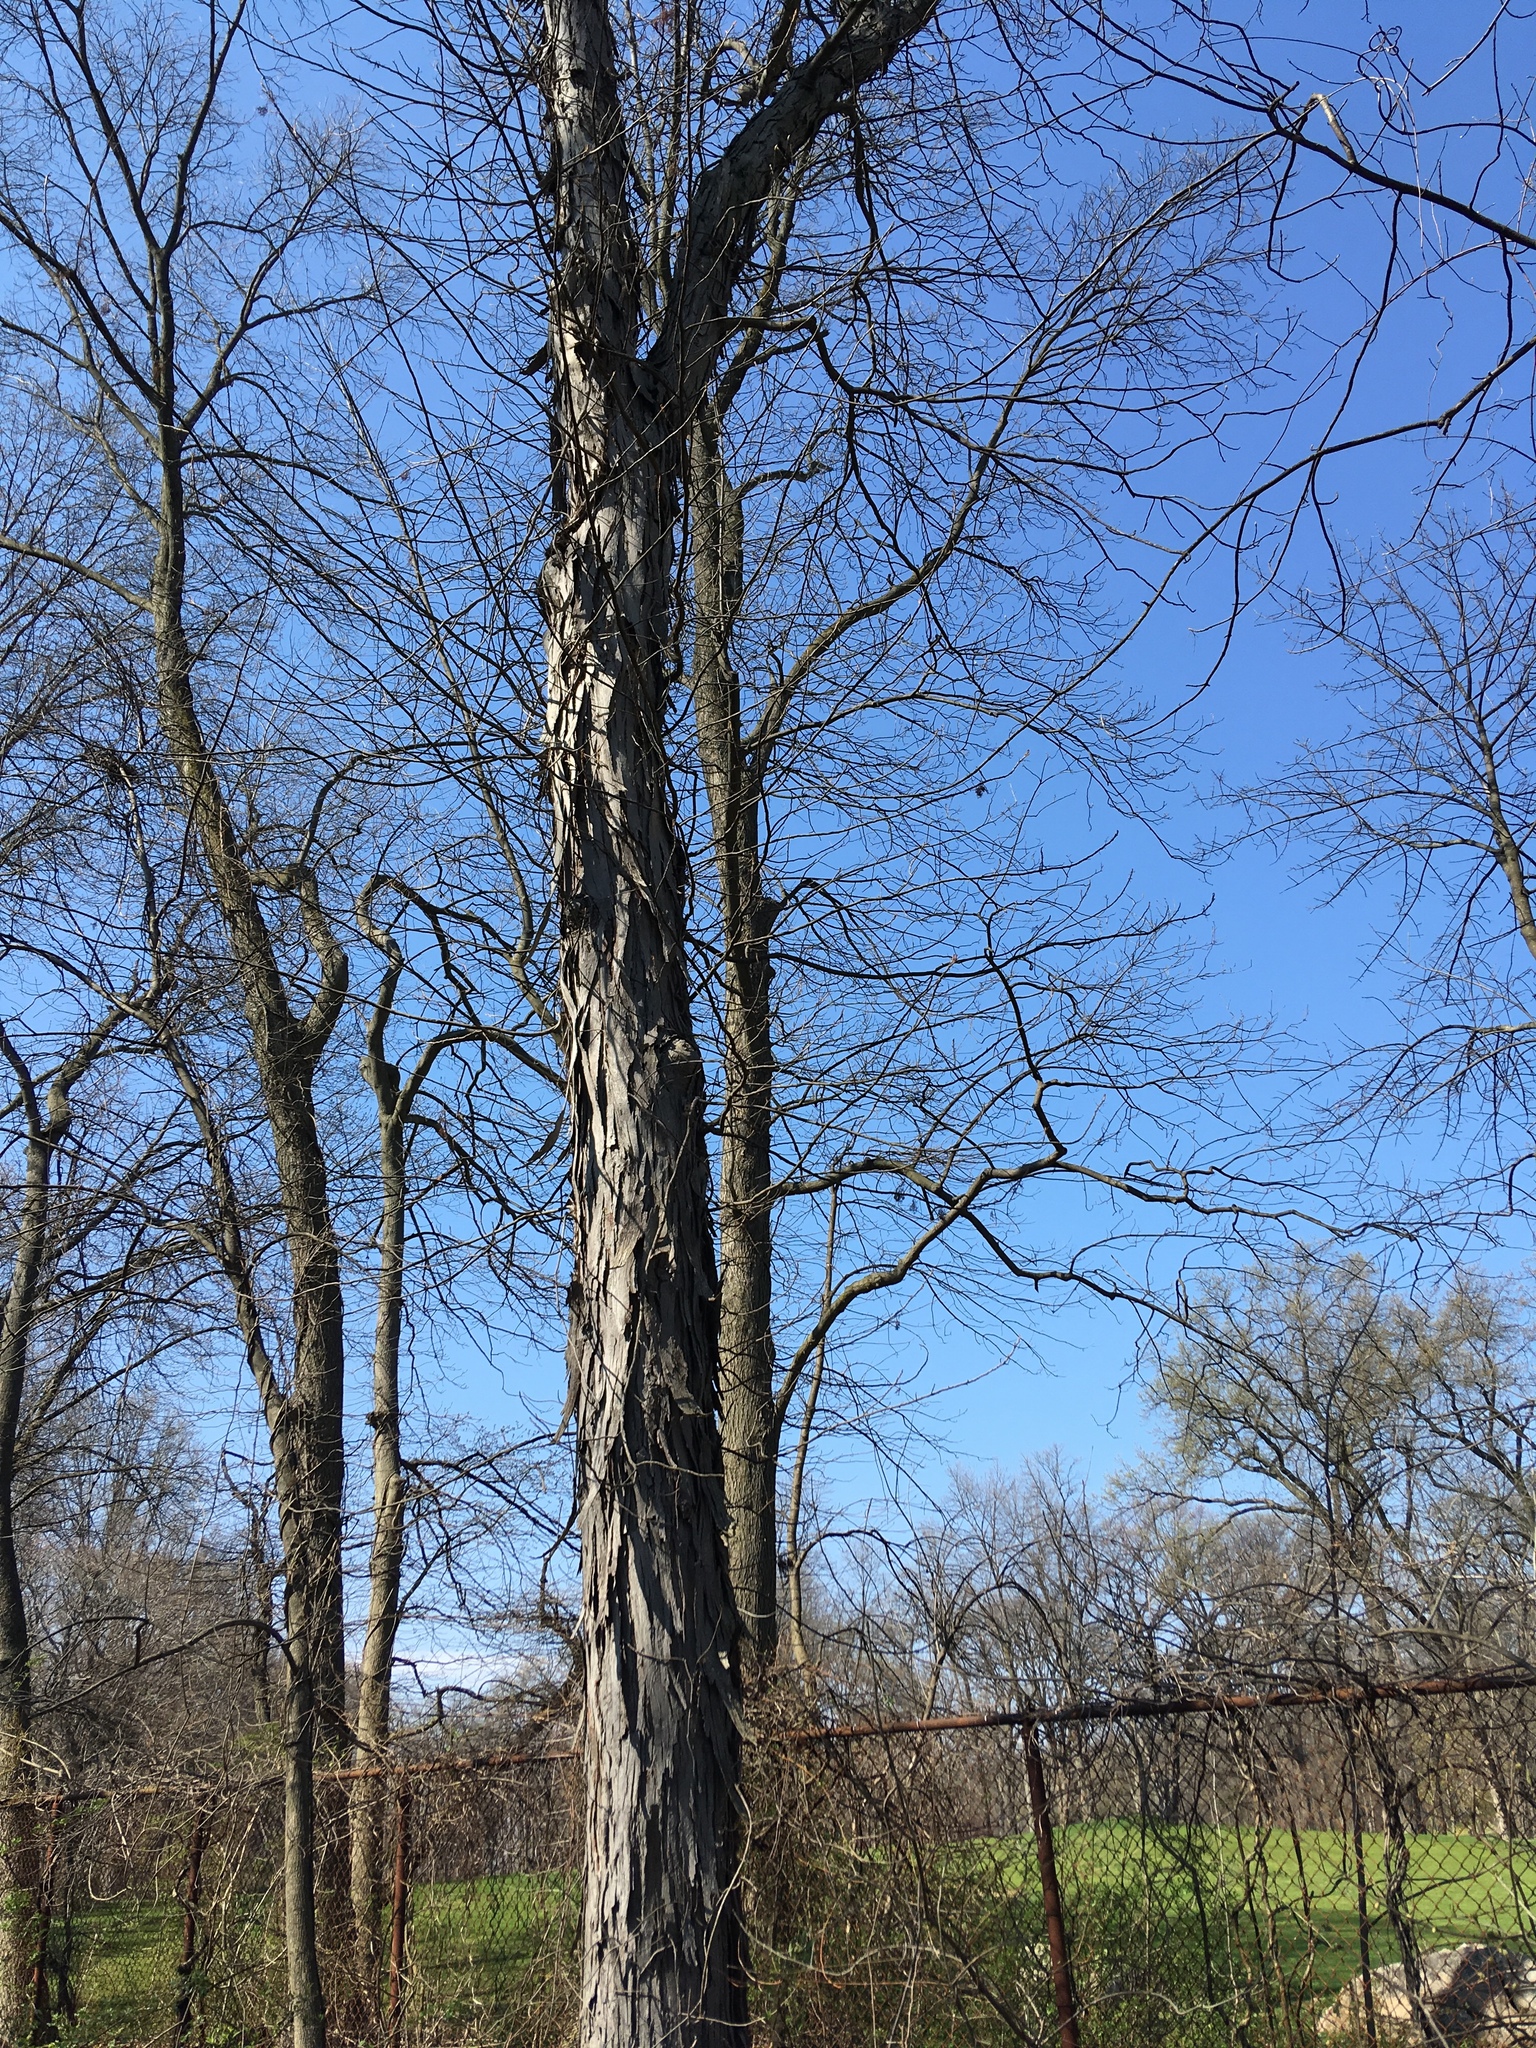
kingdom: Plantae
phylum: Tracheophyta
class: Magnoliopsida
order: Fagales
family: Juglandaceae
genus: Carya
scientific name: Carya ovata
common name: Shagbark hickory
